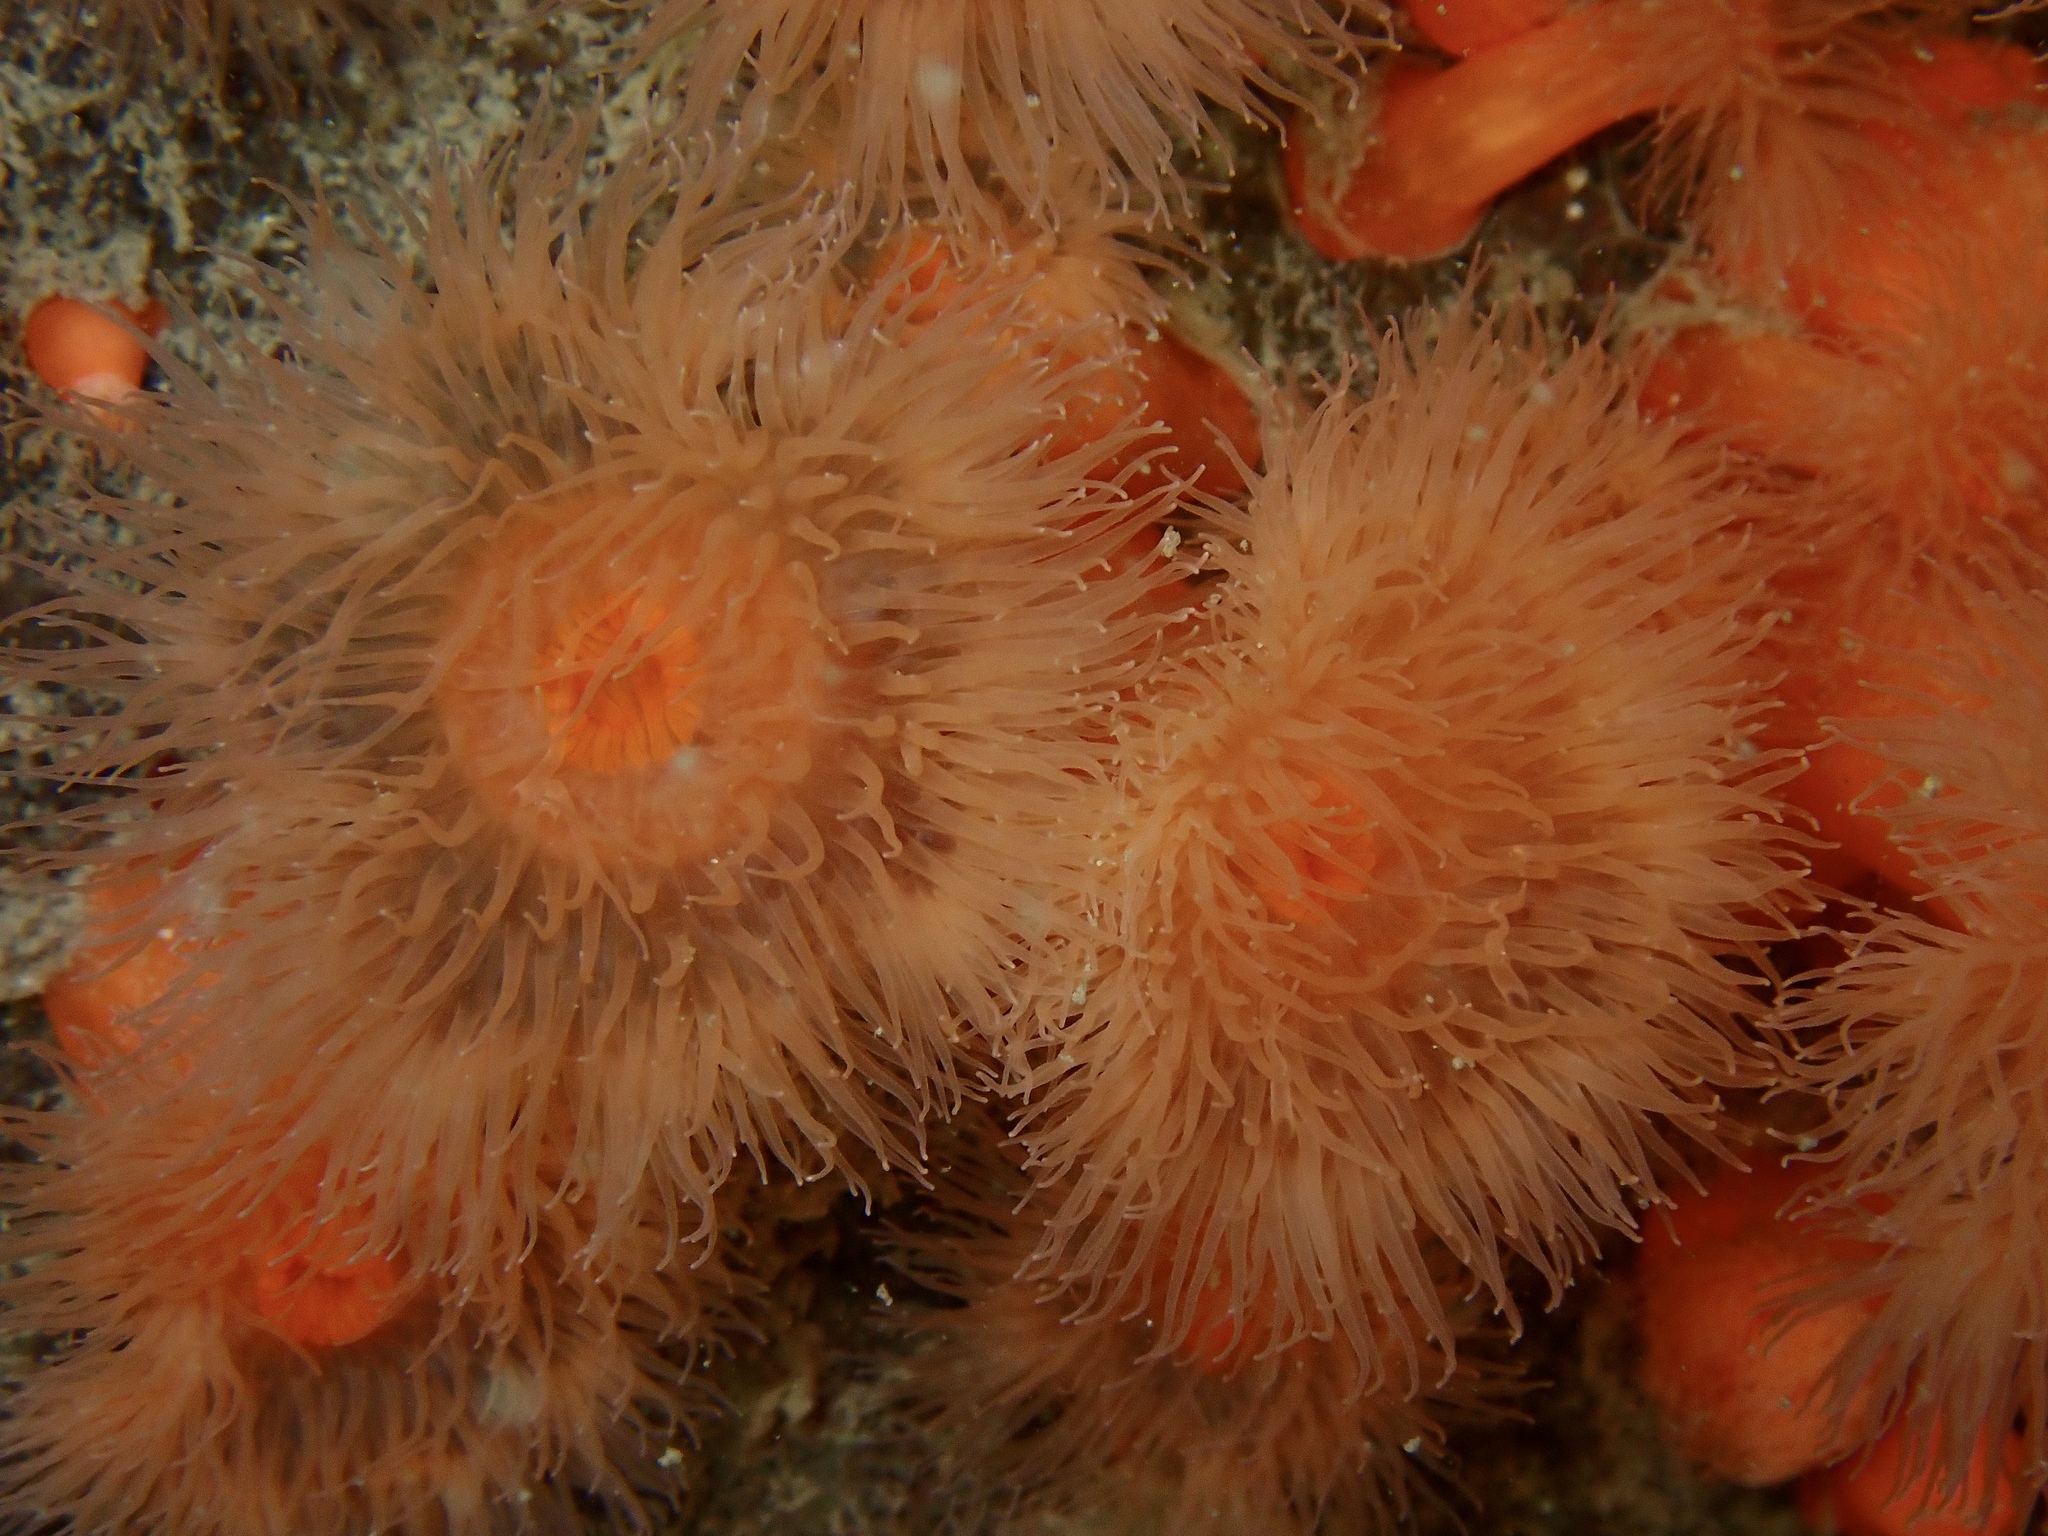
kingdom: Animalia
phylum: Cnidaria
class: Anthozoa
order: Actiniaria
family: Metridiidae
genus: Metridium
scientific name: Metridium senile
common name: Clonal plumose anemone
